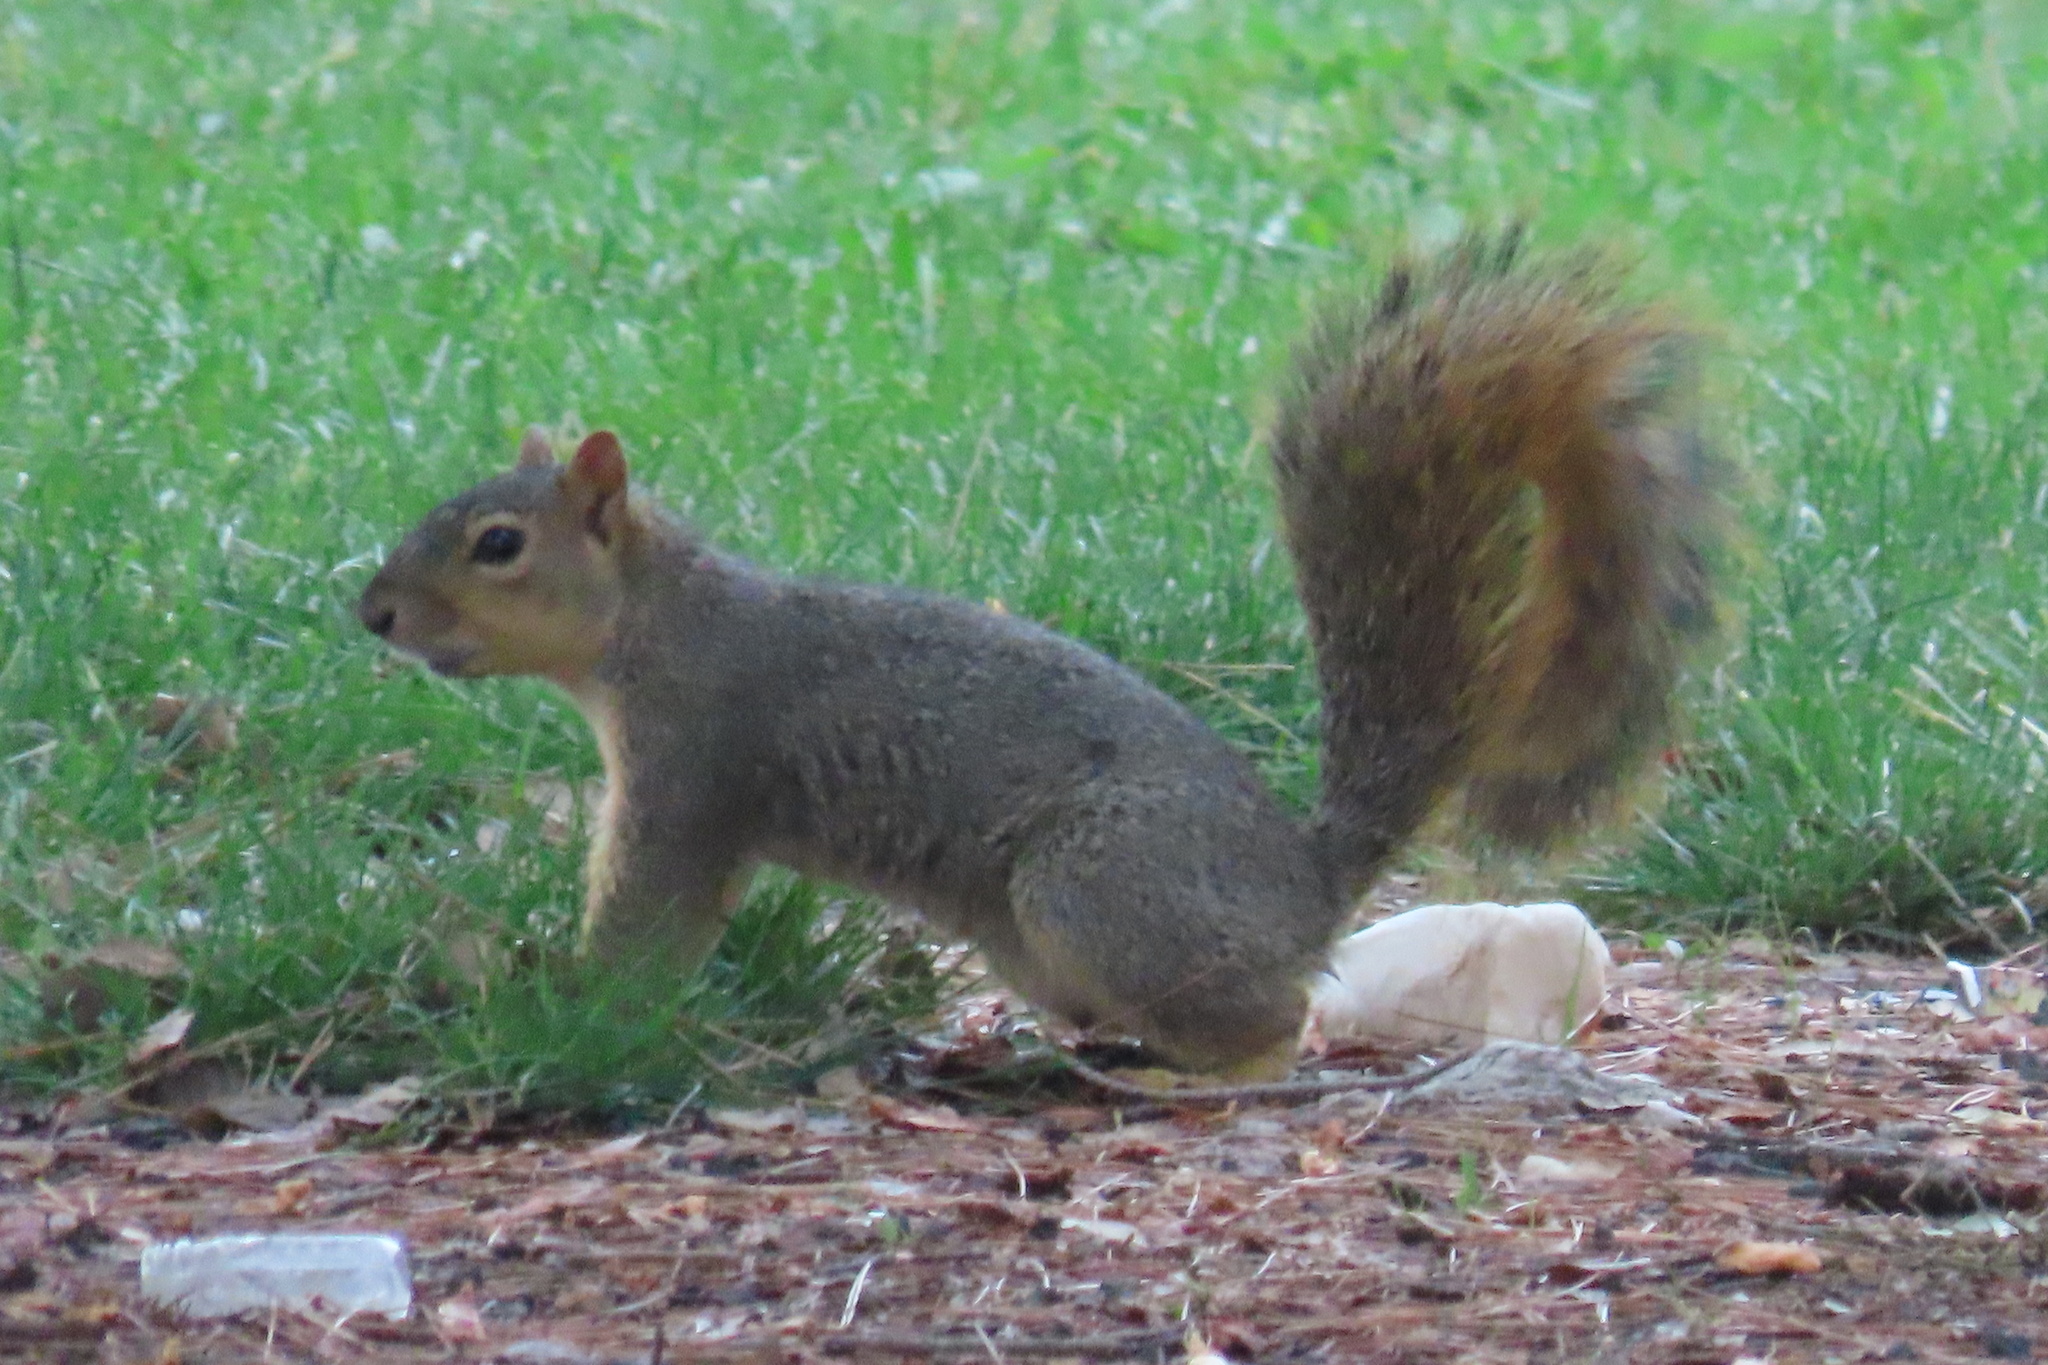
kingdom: Animalia
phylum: Chordata
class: Mammalia
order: Rodentia
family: Sciuridae
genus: Sciurus
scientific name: Sciurus niger
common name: Fox squirrel
